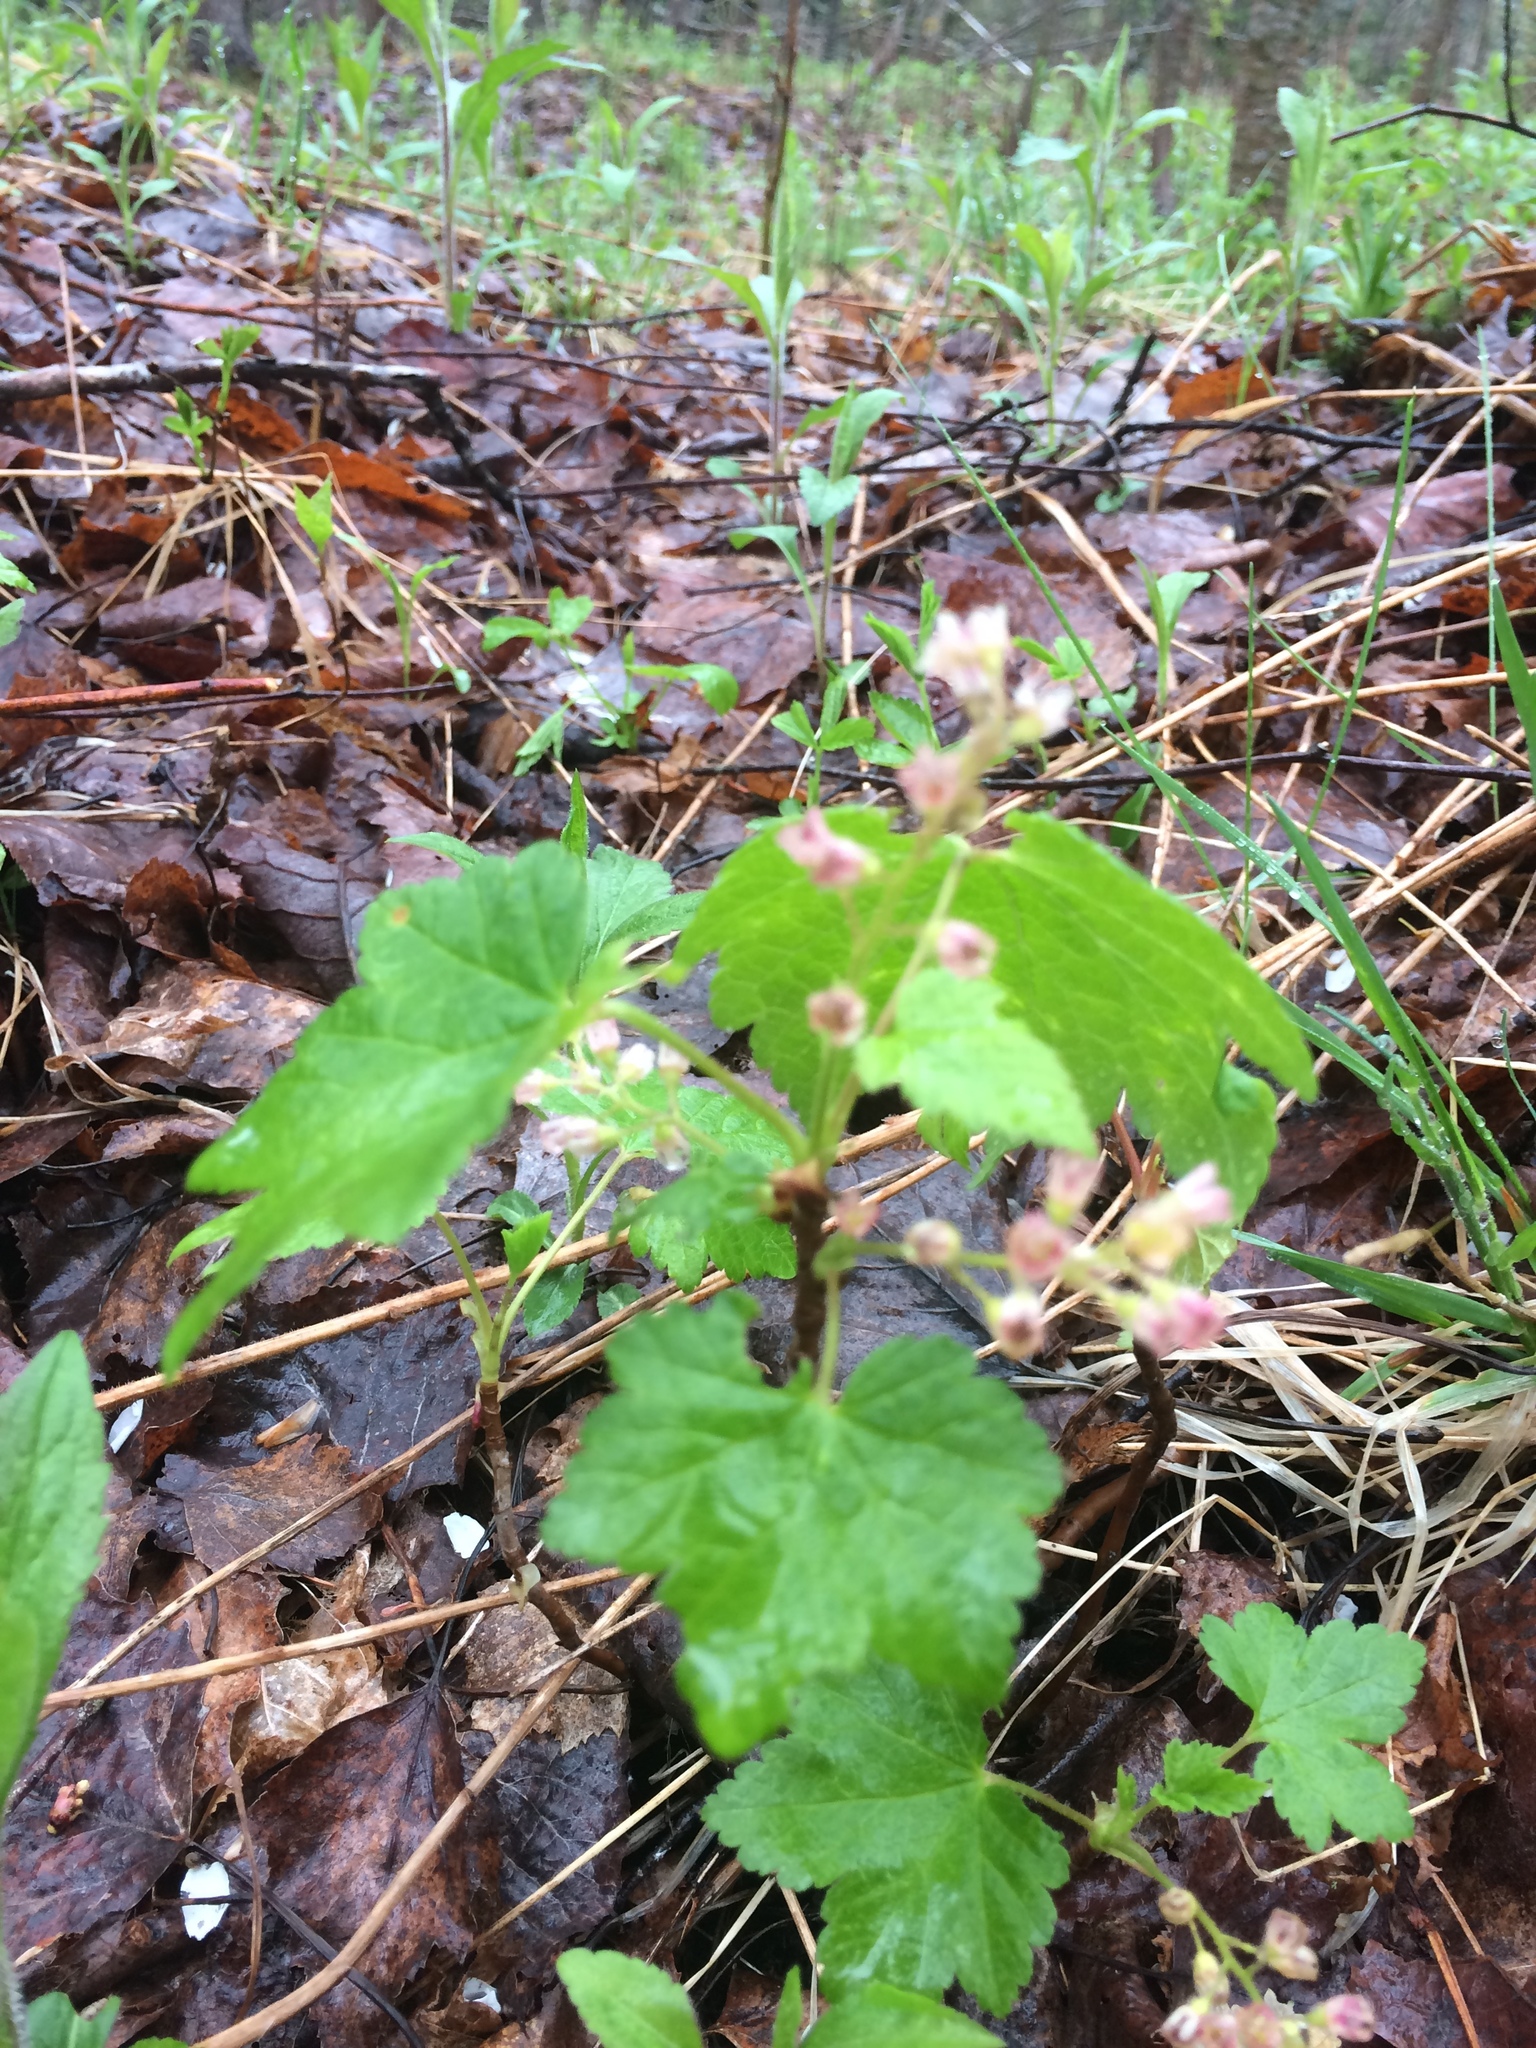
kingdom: Plantae
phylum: Tracheophyta
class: Magnoliopsida
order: Saxifragales
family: Grossulariaceae
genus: Ribes
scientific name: Ribes glandulosum
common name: Skunk currant
